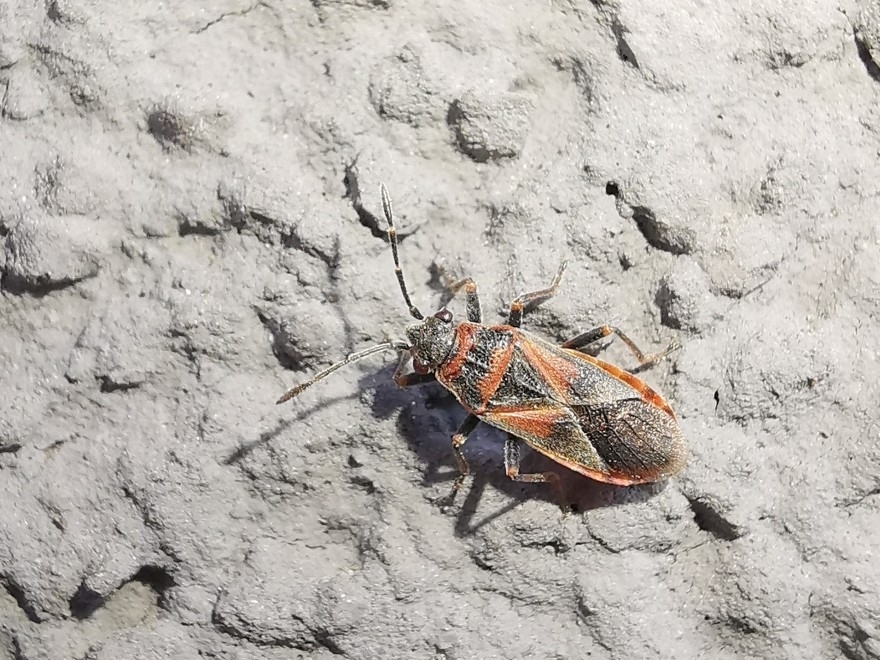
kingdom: Animalia
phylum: Arthropoda
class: Insecta
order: Hemiptera
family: Lygaeidae
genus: Arocatus
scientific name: Arocatus melanocephalus
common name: Lygaeid bug
